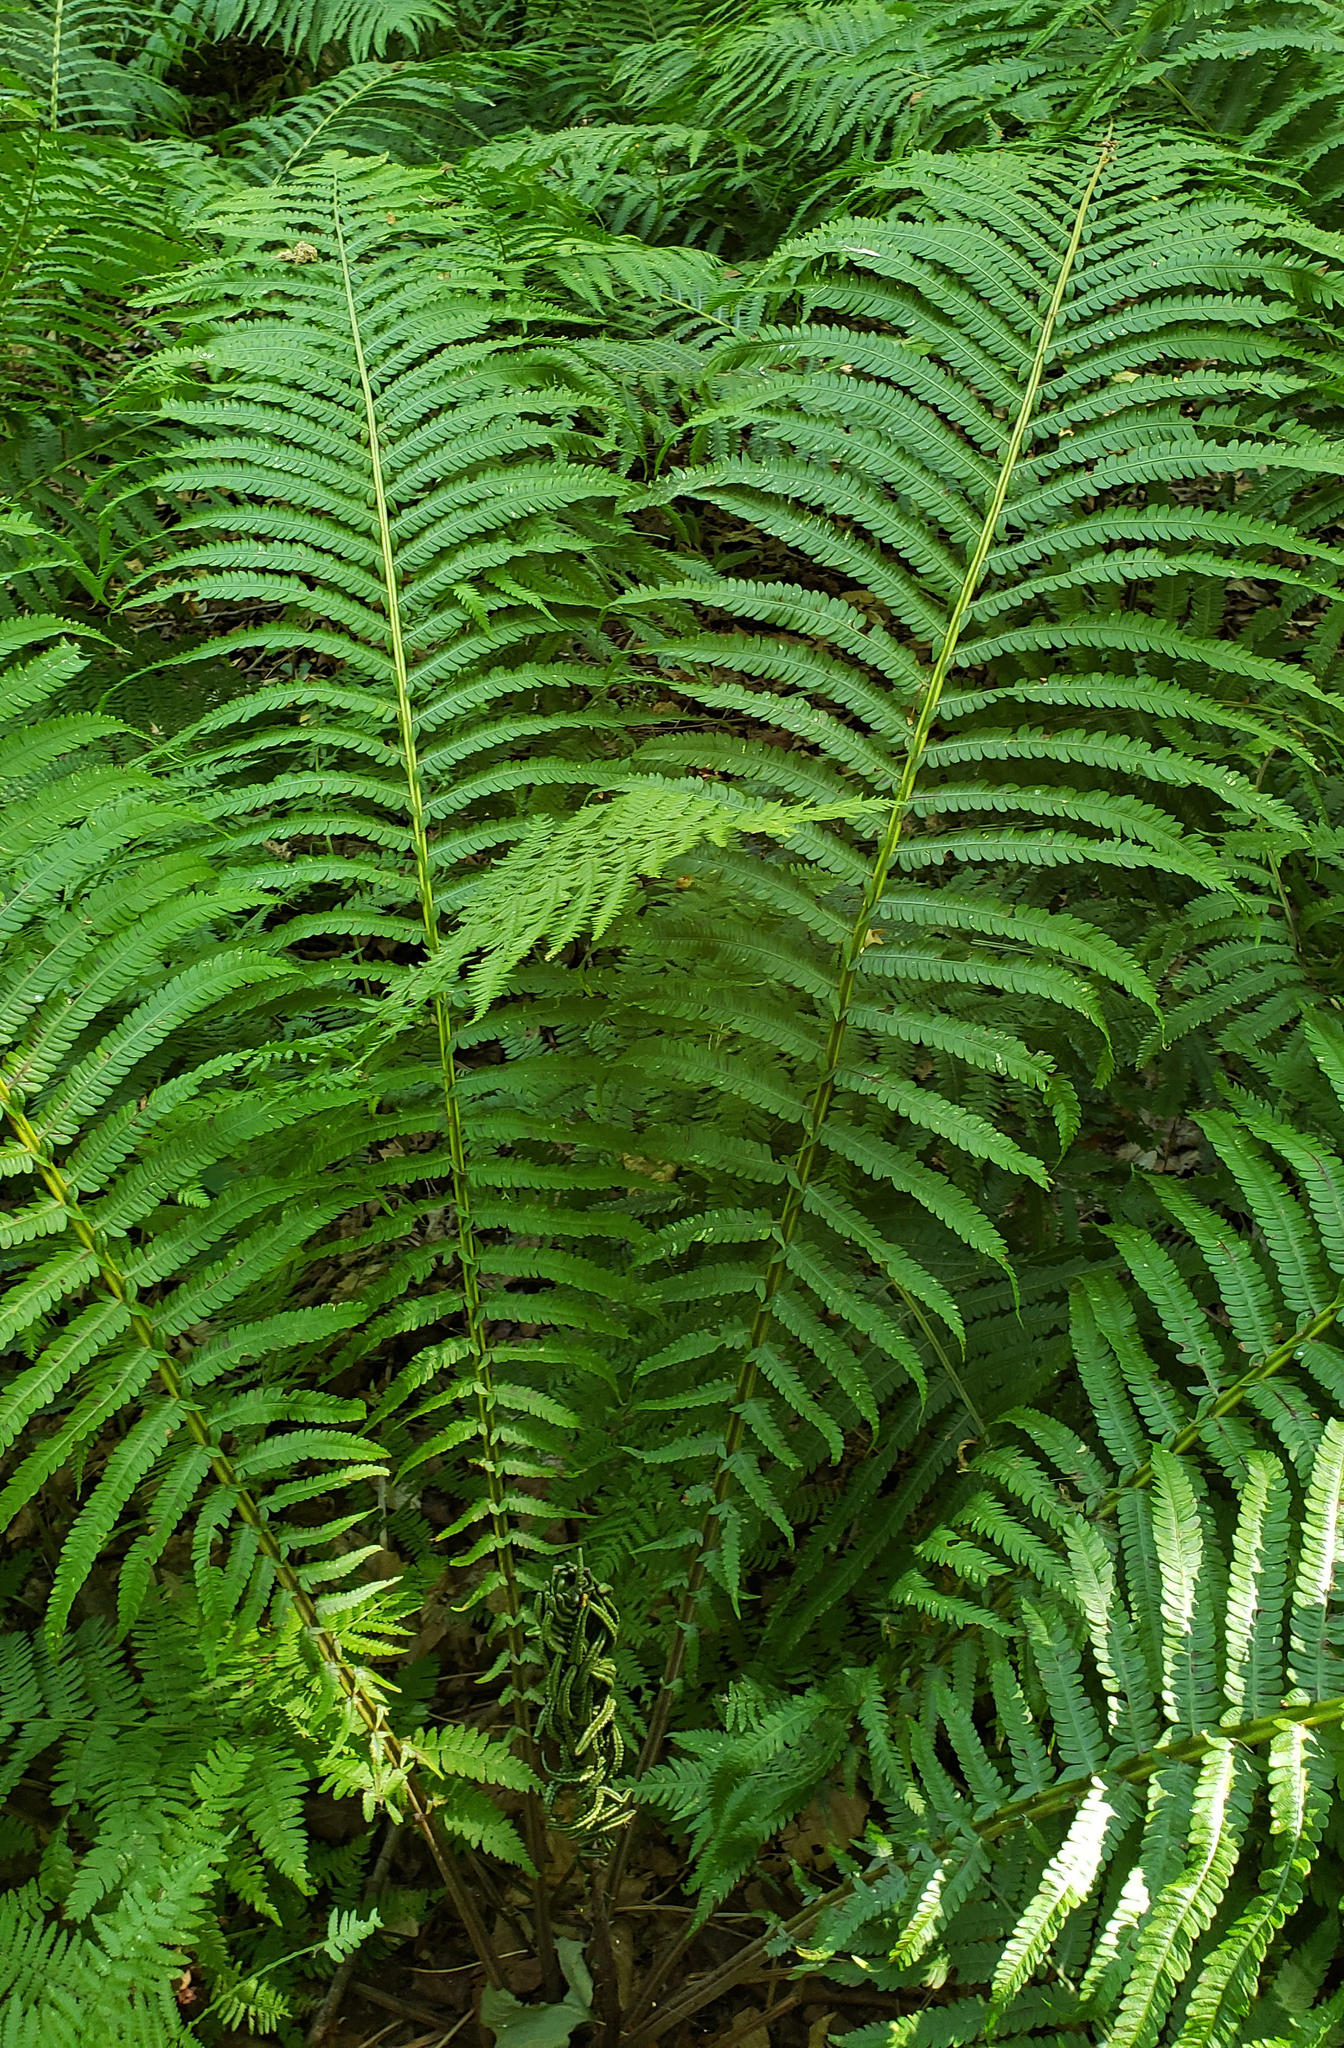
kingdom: Plantae
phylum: Tracheophyta
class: Polypodiopsida
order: Polypodiales
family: Onocleaceae
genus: Matteuccia
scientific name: Matteuccia struthiopteris
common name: Ostrich fern
